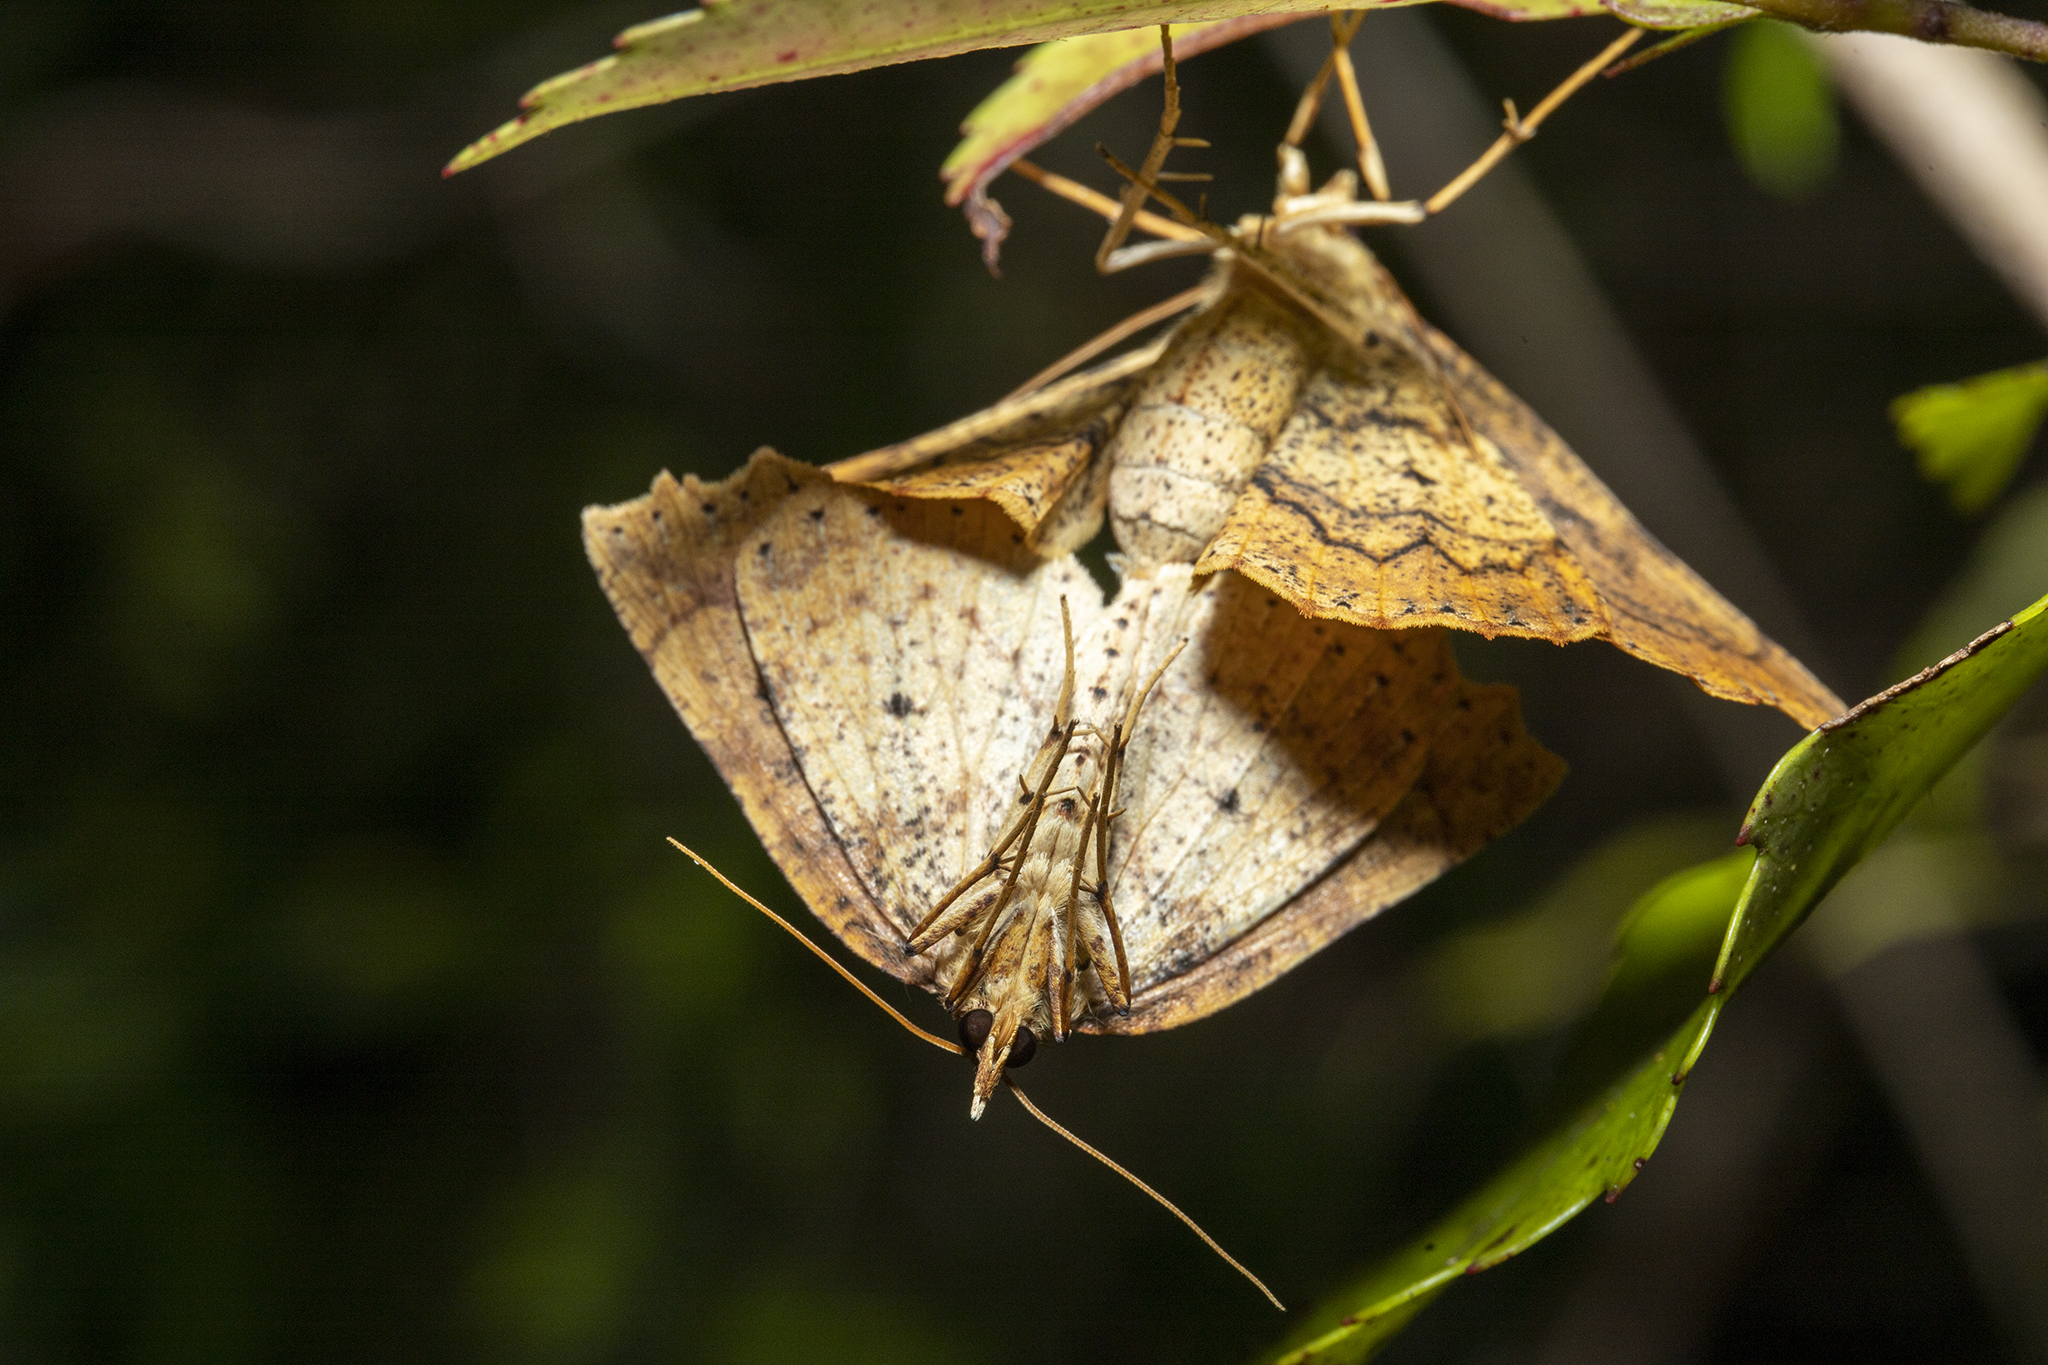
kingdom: Animalia
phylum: Arthropoda
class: Insecta
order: Lepidoptera
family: Geometridae
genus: Ischalis
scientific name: Ischalis variabilis
